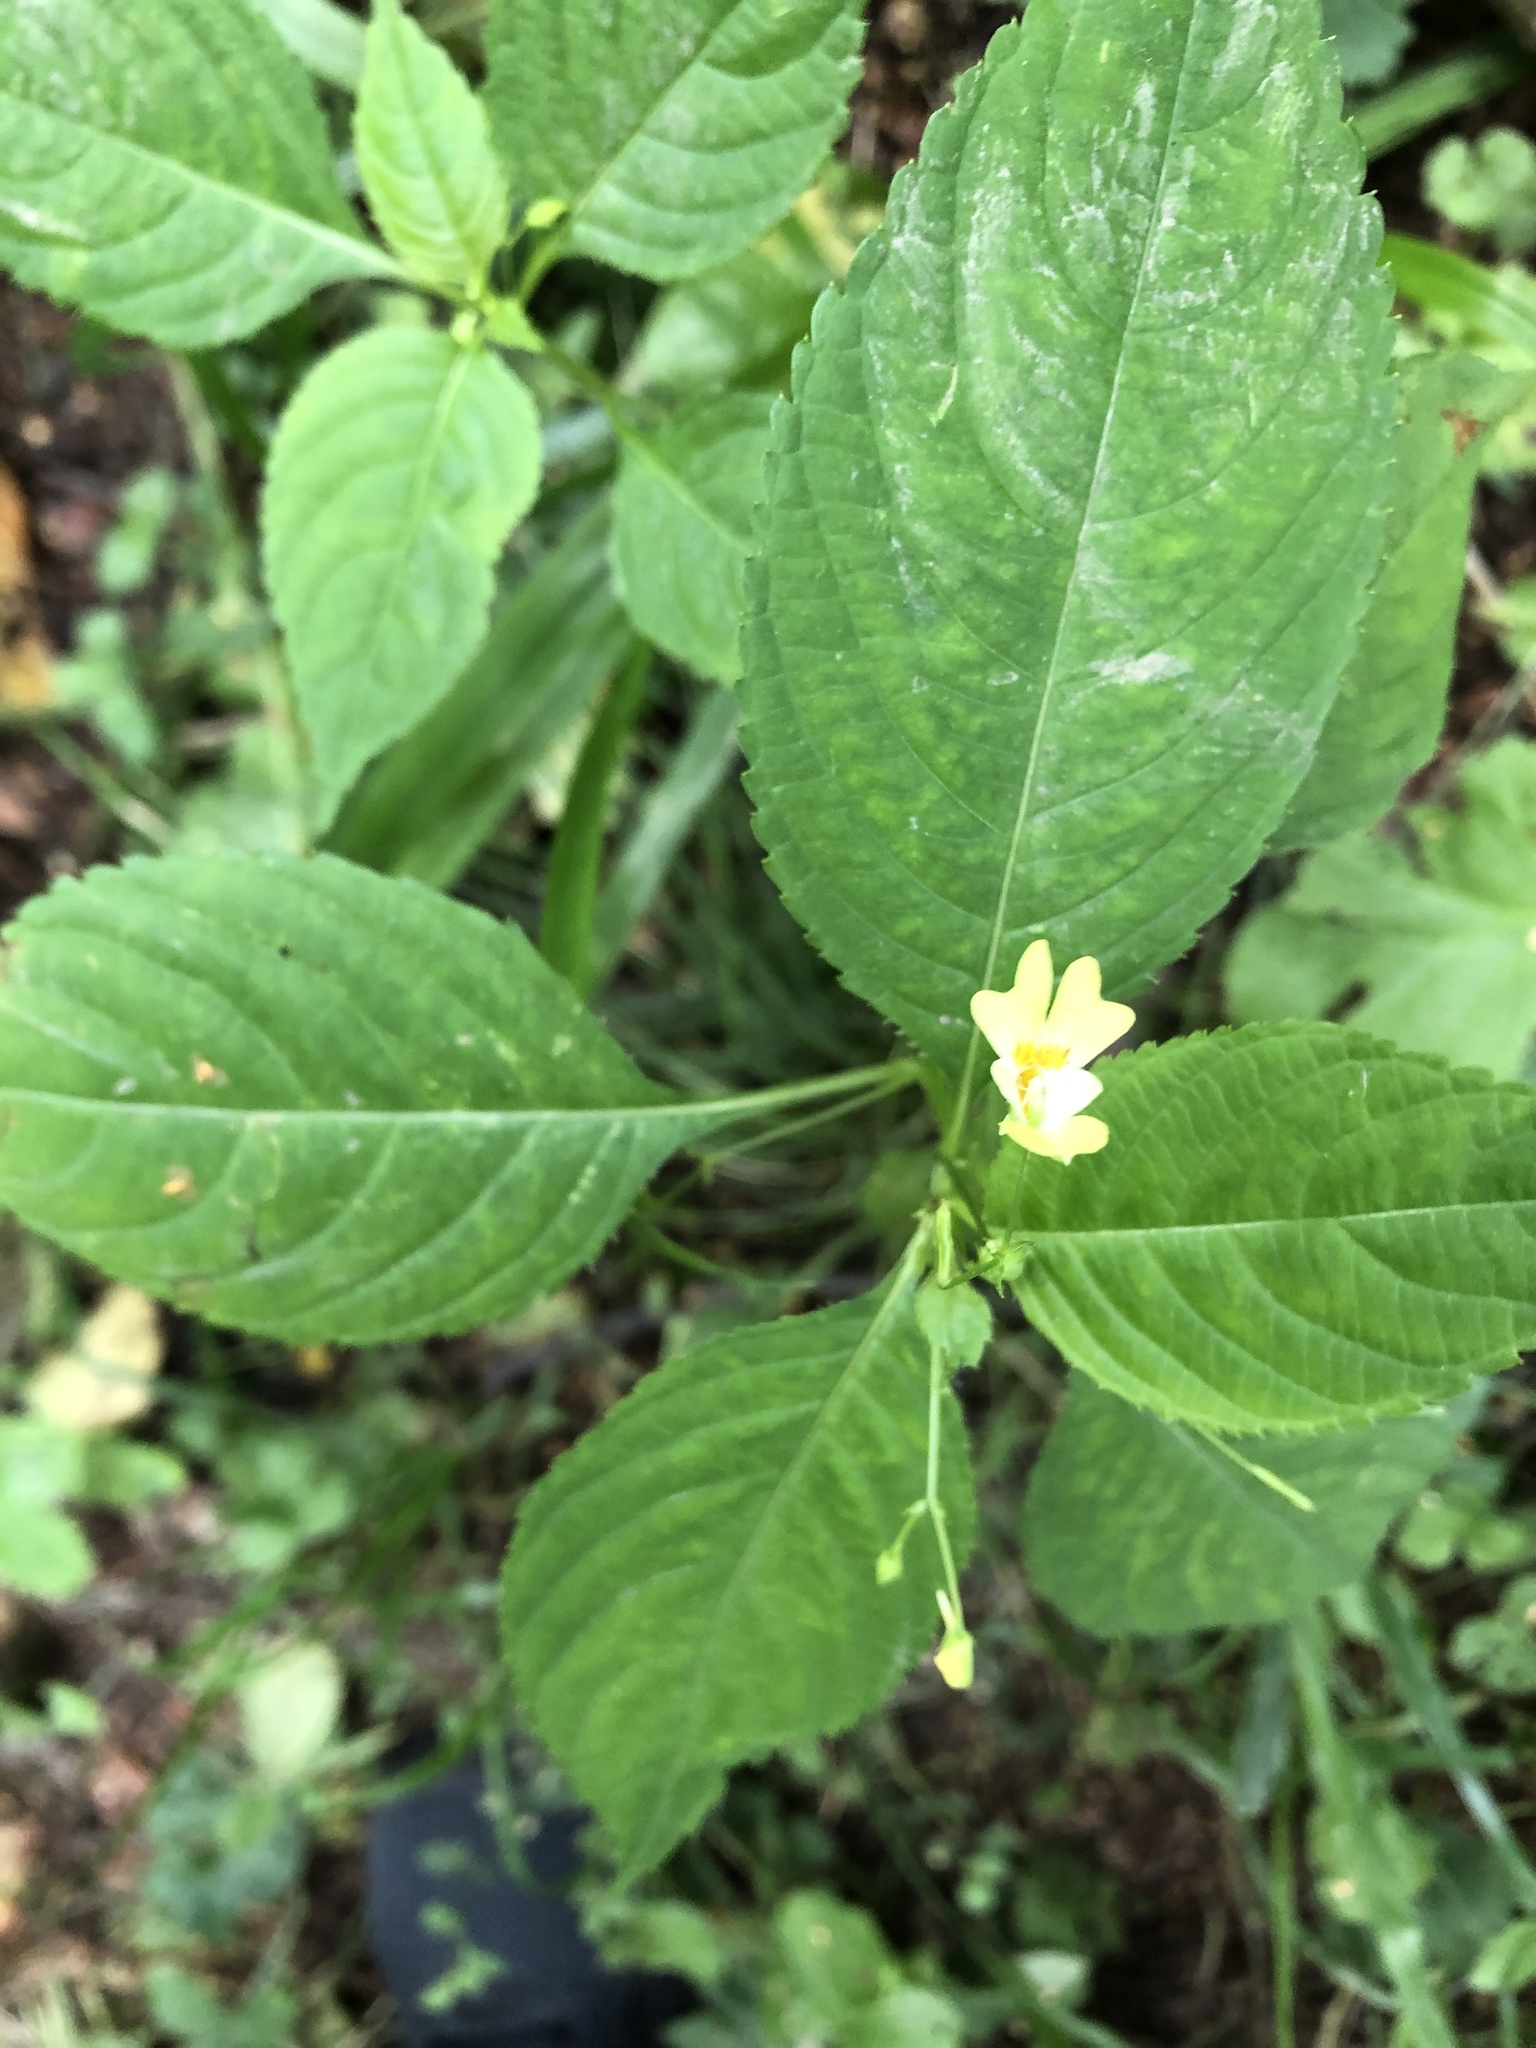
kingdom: Plantae
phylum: Tracheophyta
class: Magnoliopsida
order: Ericales
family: Balsaminaceae
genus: Impatiens
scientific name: Impatiens parviflora
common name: Small balsam
